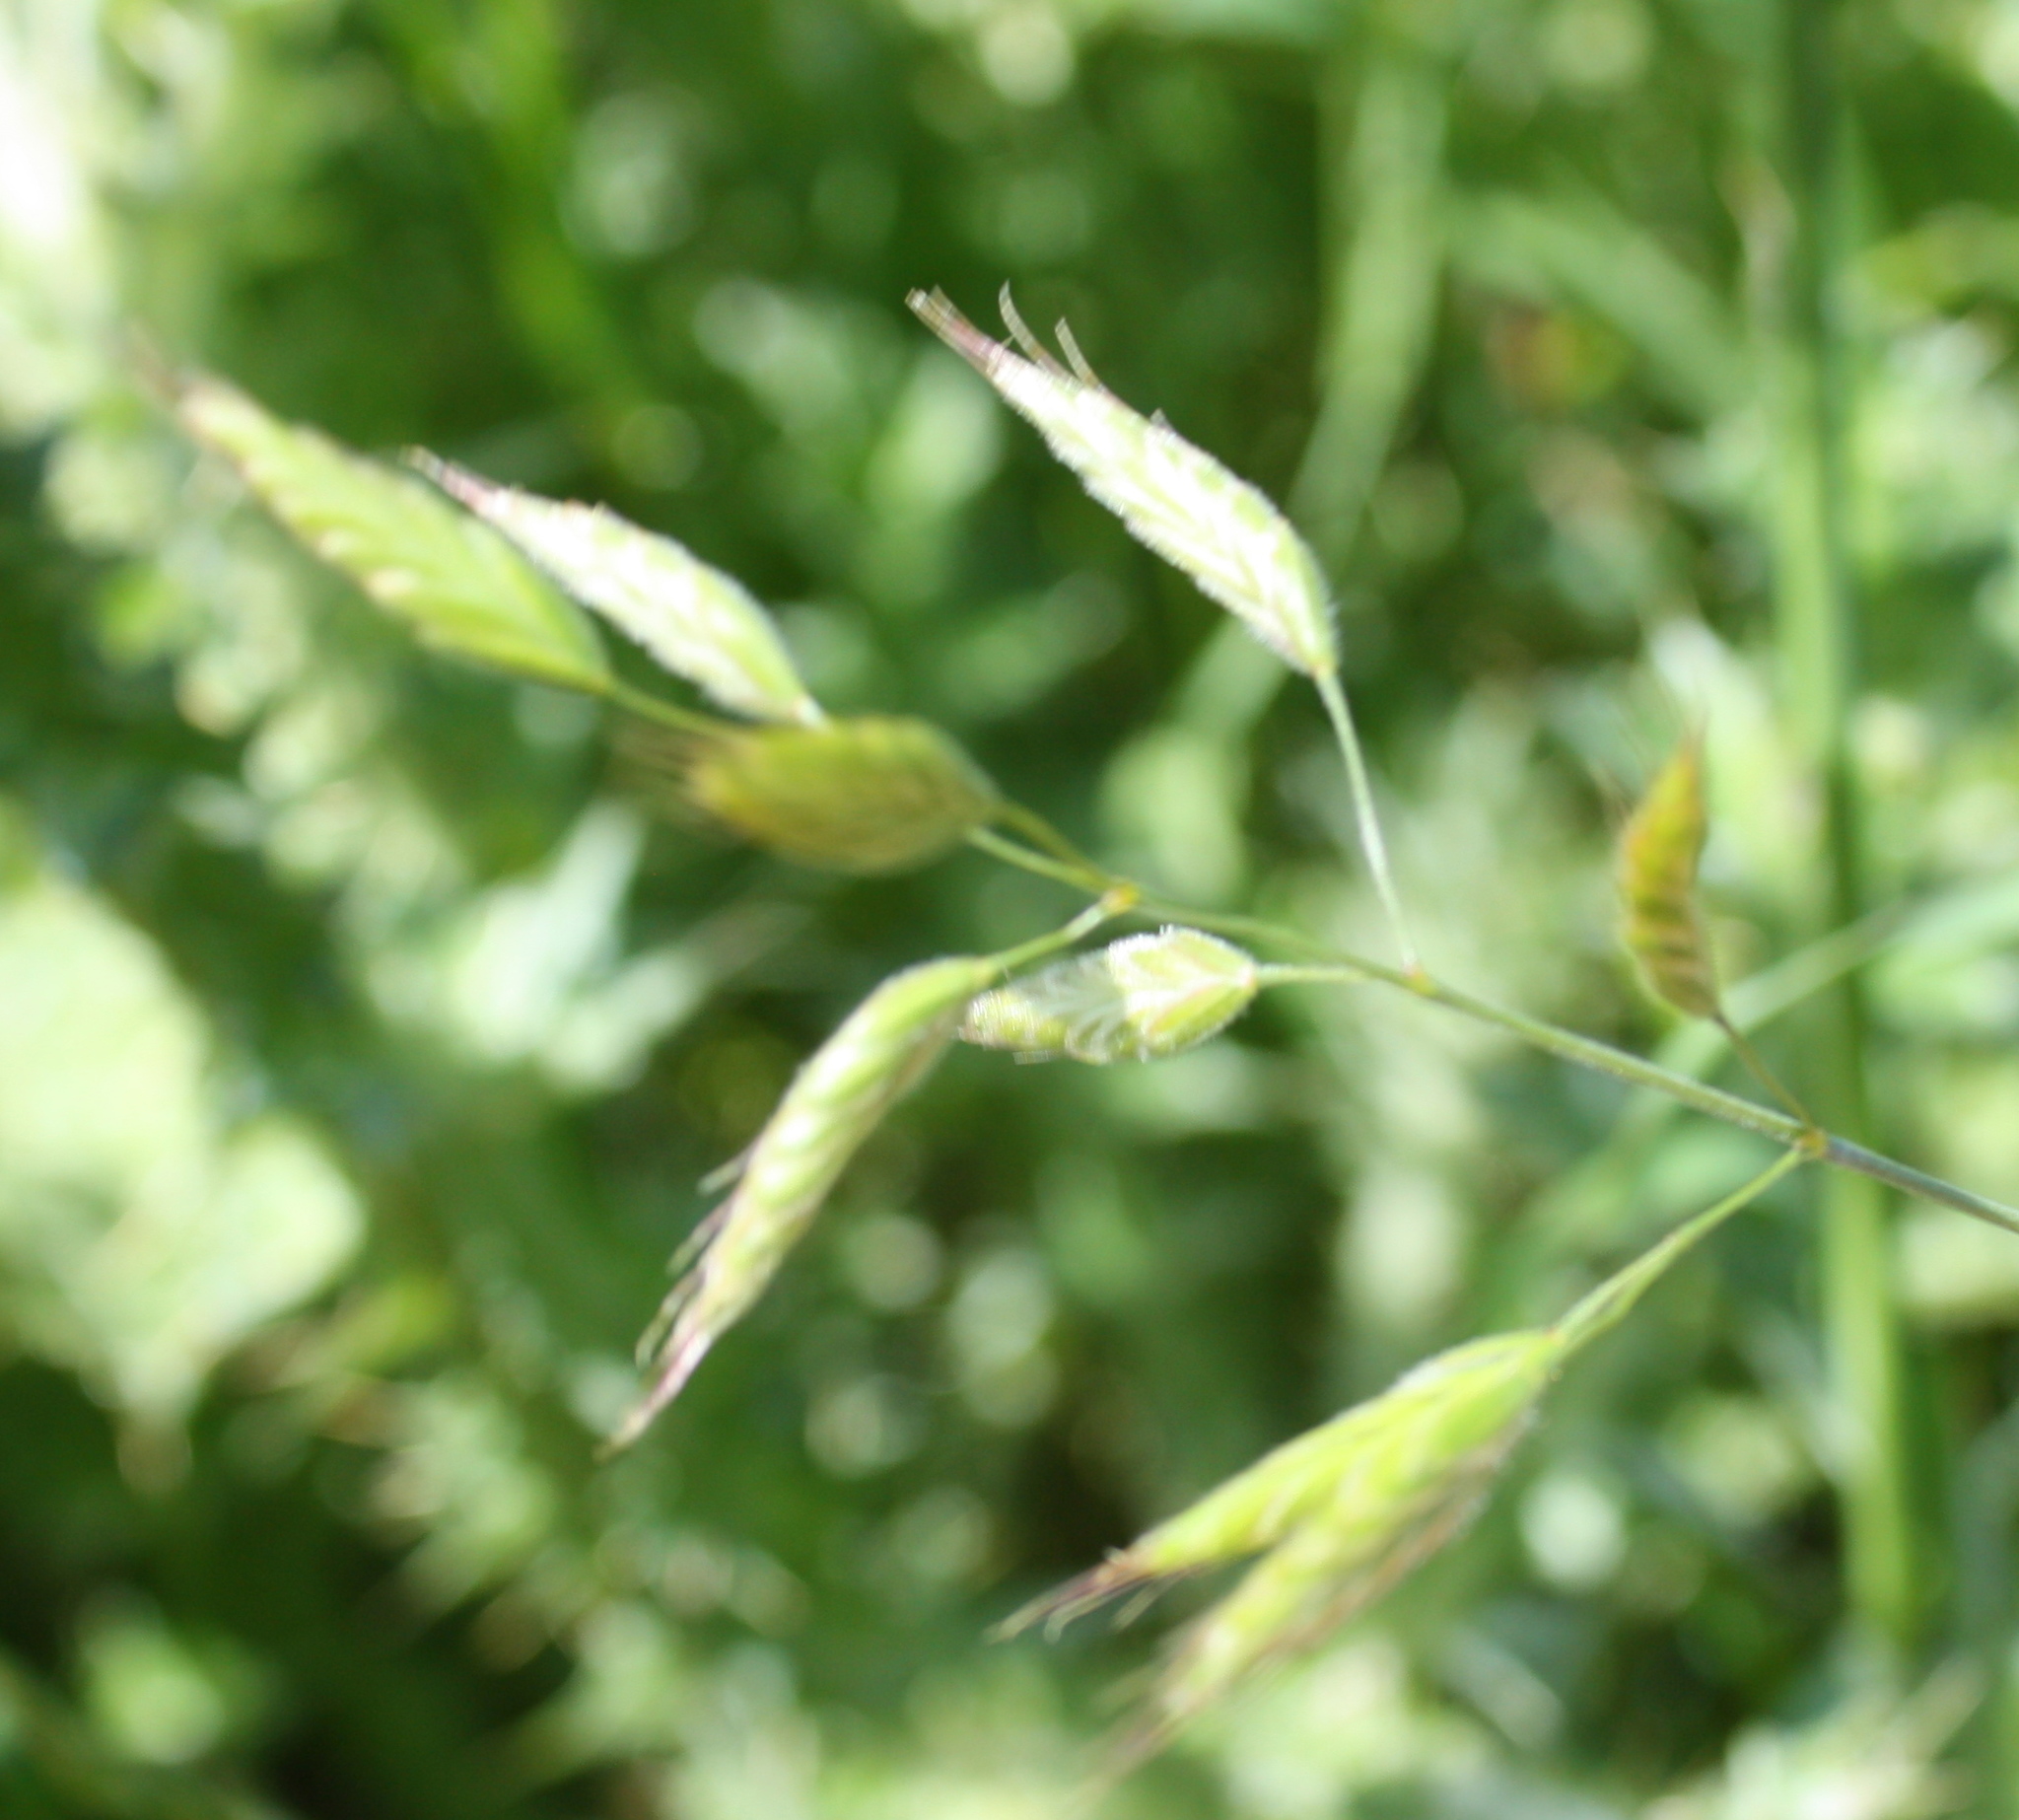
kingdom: Plantae
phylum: Tracheophyta
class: Liliopsida
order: Poales
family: Poaceae
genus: Bromus
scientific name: Bromus hordeaceus
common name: Soft brome
